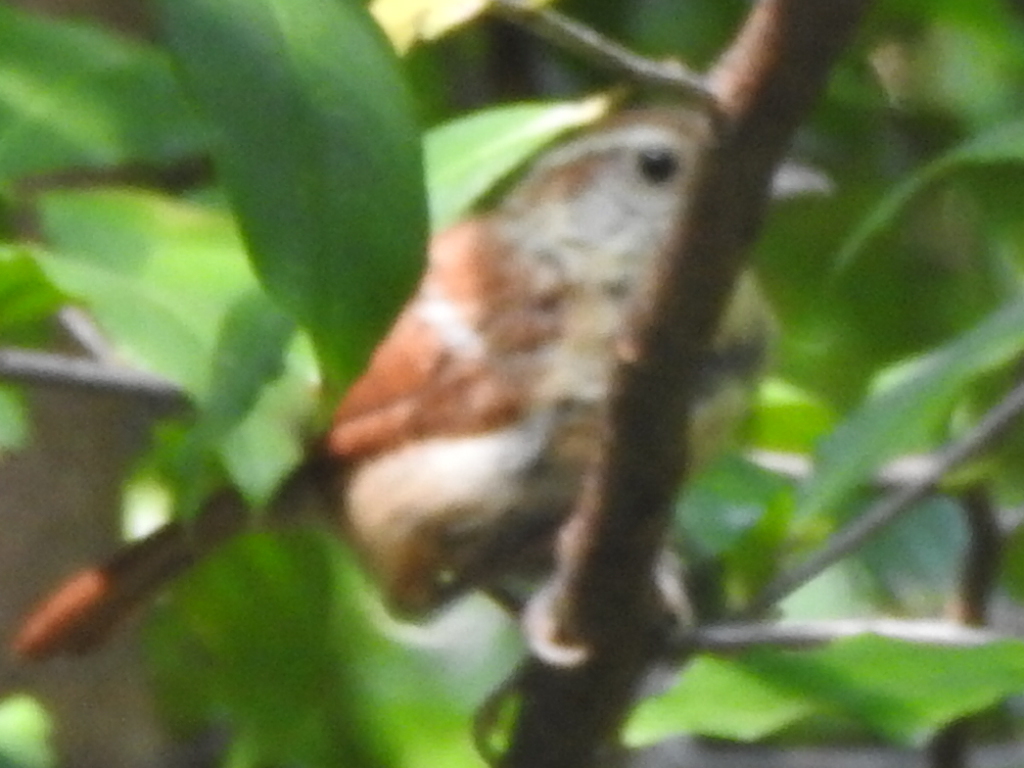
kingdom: Animalia
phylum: Chordata
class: Aves
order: Passeriformes
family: Troglodytidae
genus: Thryothorus
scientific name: Thryothorus ludovicianus
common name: Carolina wren
